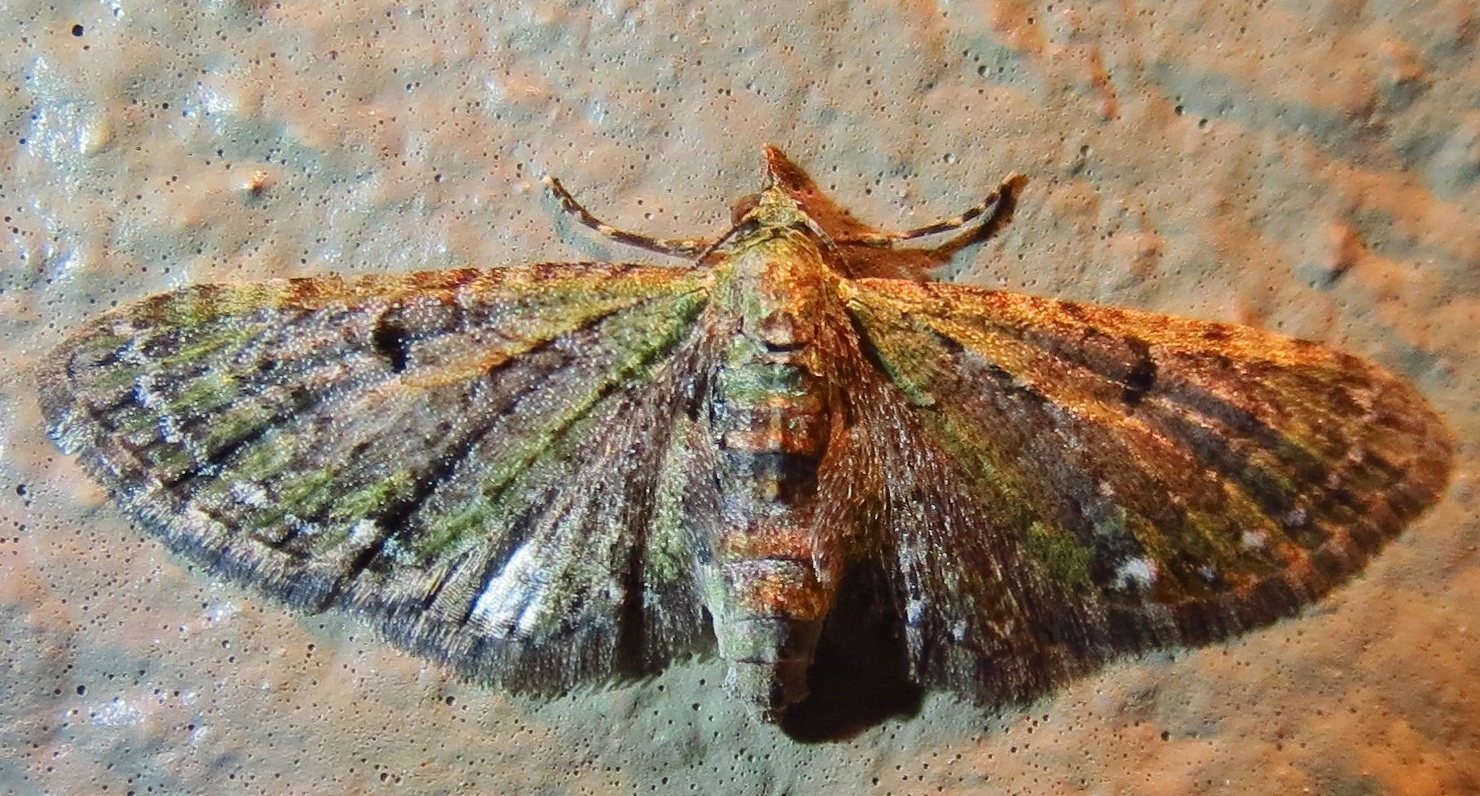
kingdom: Animalia
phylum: Arthropoda
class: Insecta
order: Lepidoptera
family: Geometridae
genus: Eupithecia
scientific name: Eupithecia miserulata
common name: Common eupithecia
